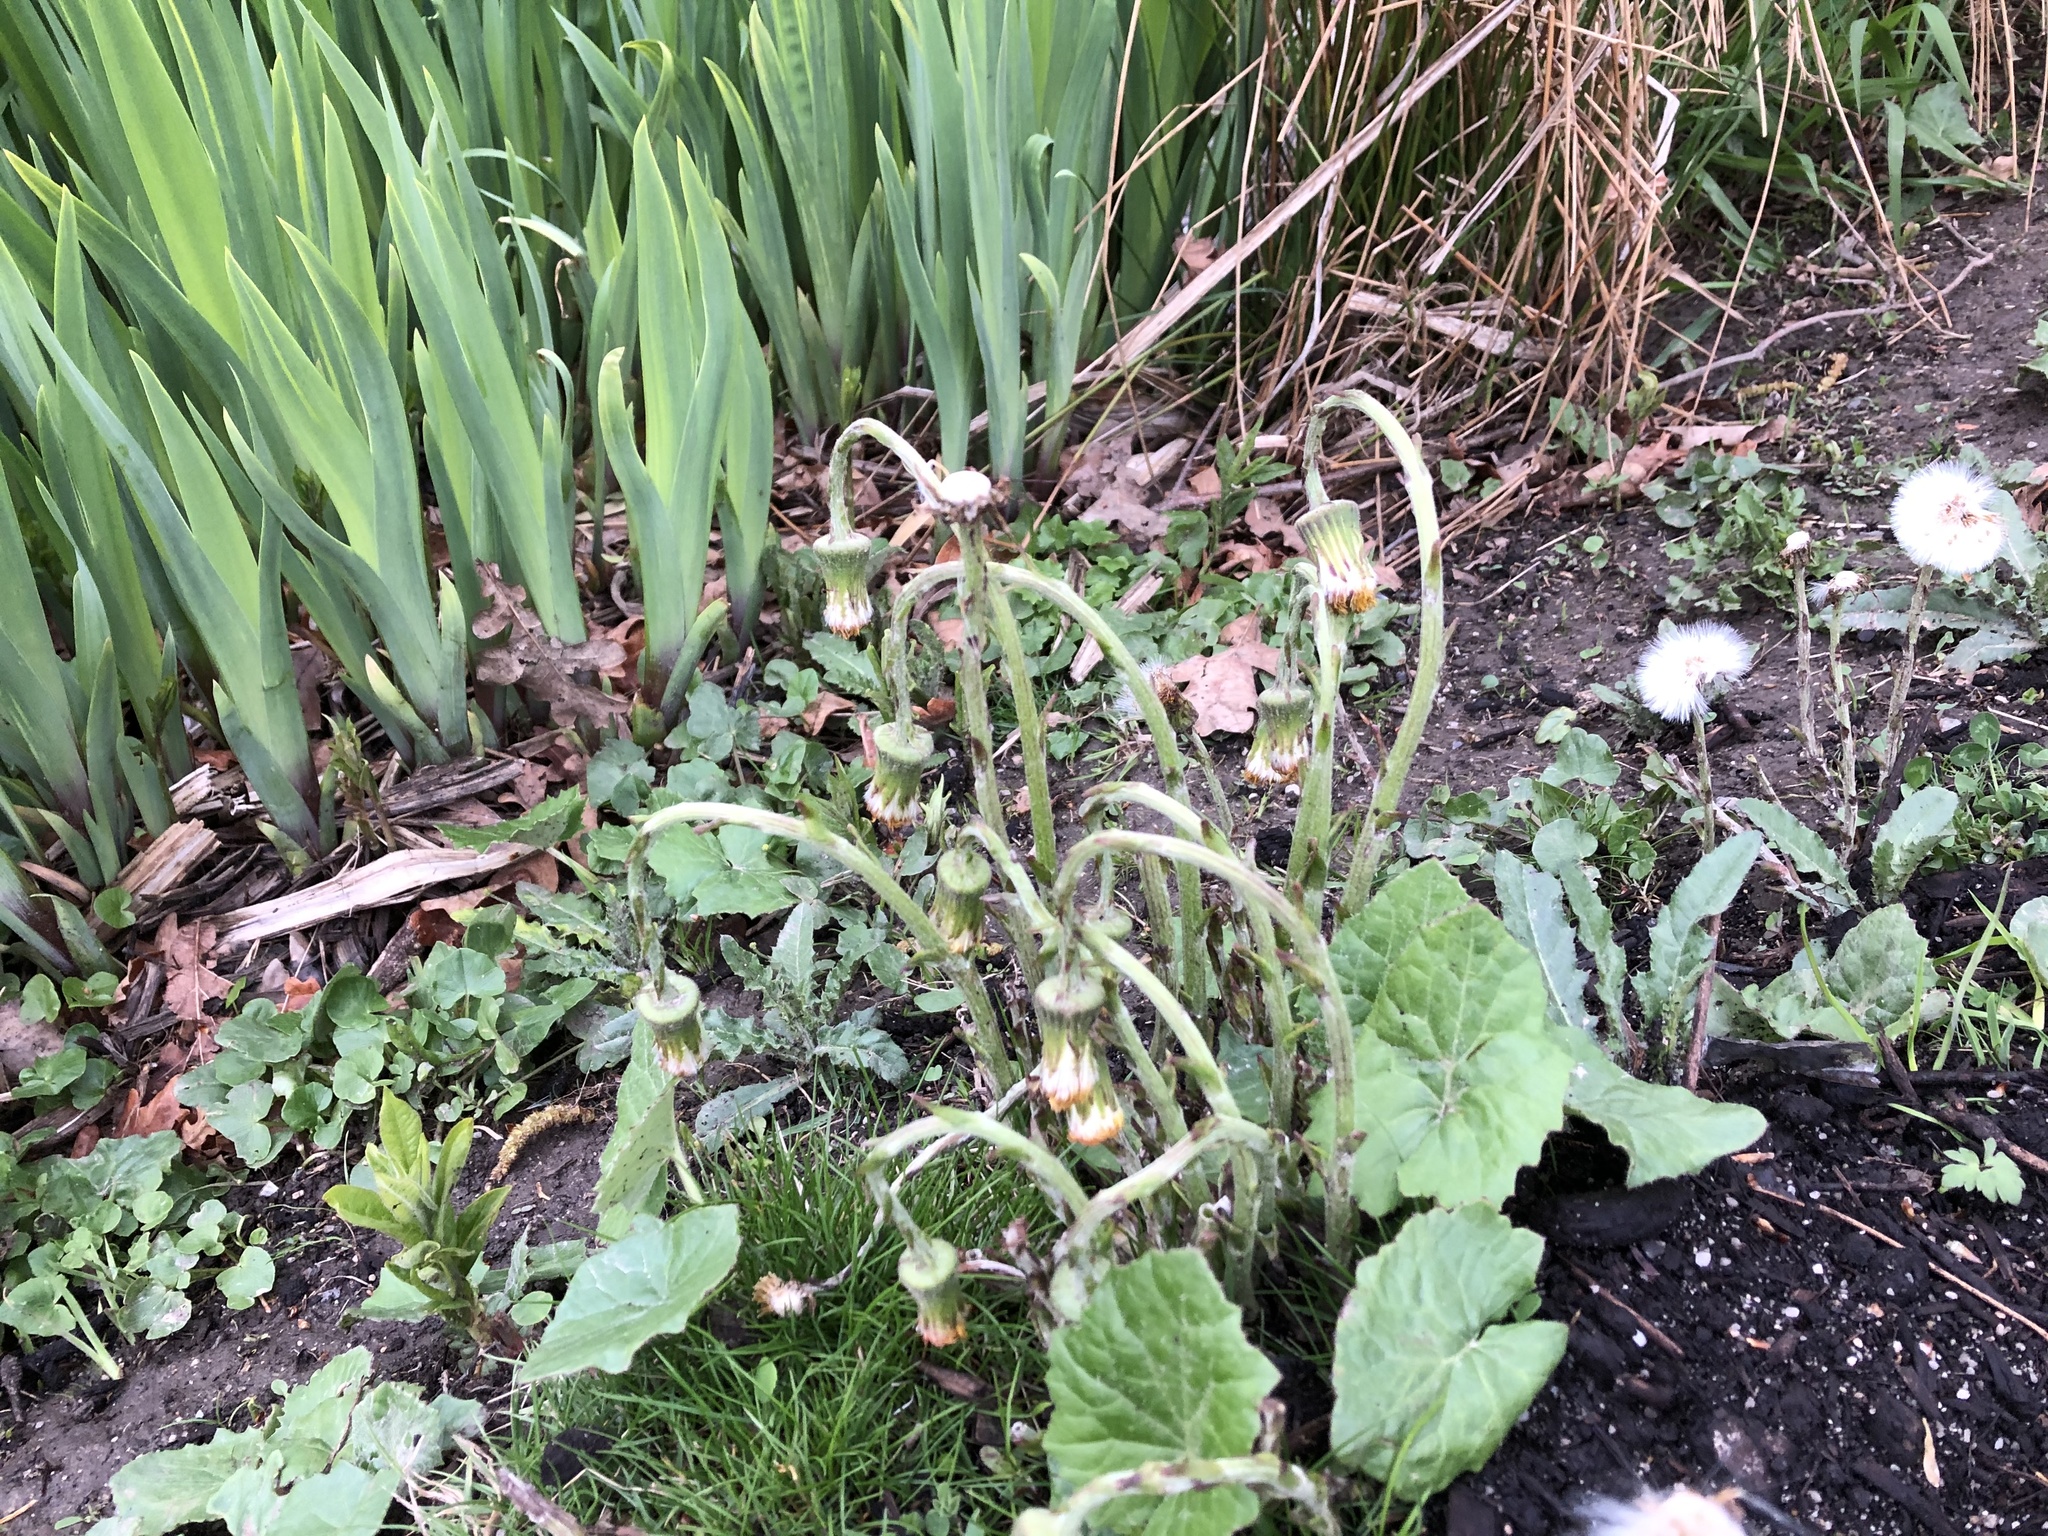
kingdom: Plantae
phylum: Tracheophyta
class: Magnoliopsida
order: Asterales
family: Asteraceae
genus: Tussilago
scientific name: Tussilago farfara
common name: Coltsfoot
